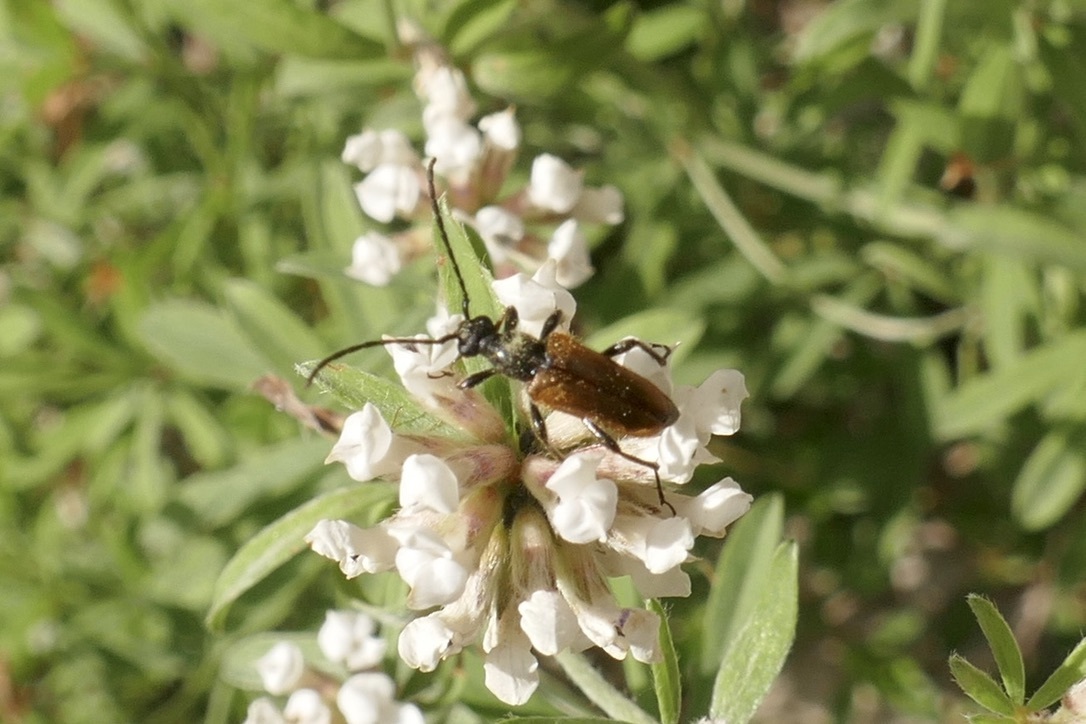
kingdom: Animalia
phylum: Arthropoda
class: Insecta
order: Coleoptera
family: Cerambycidae
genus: Pseudovadonia
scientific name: Pseudovadonia livida
